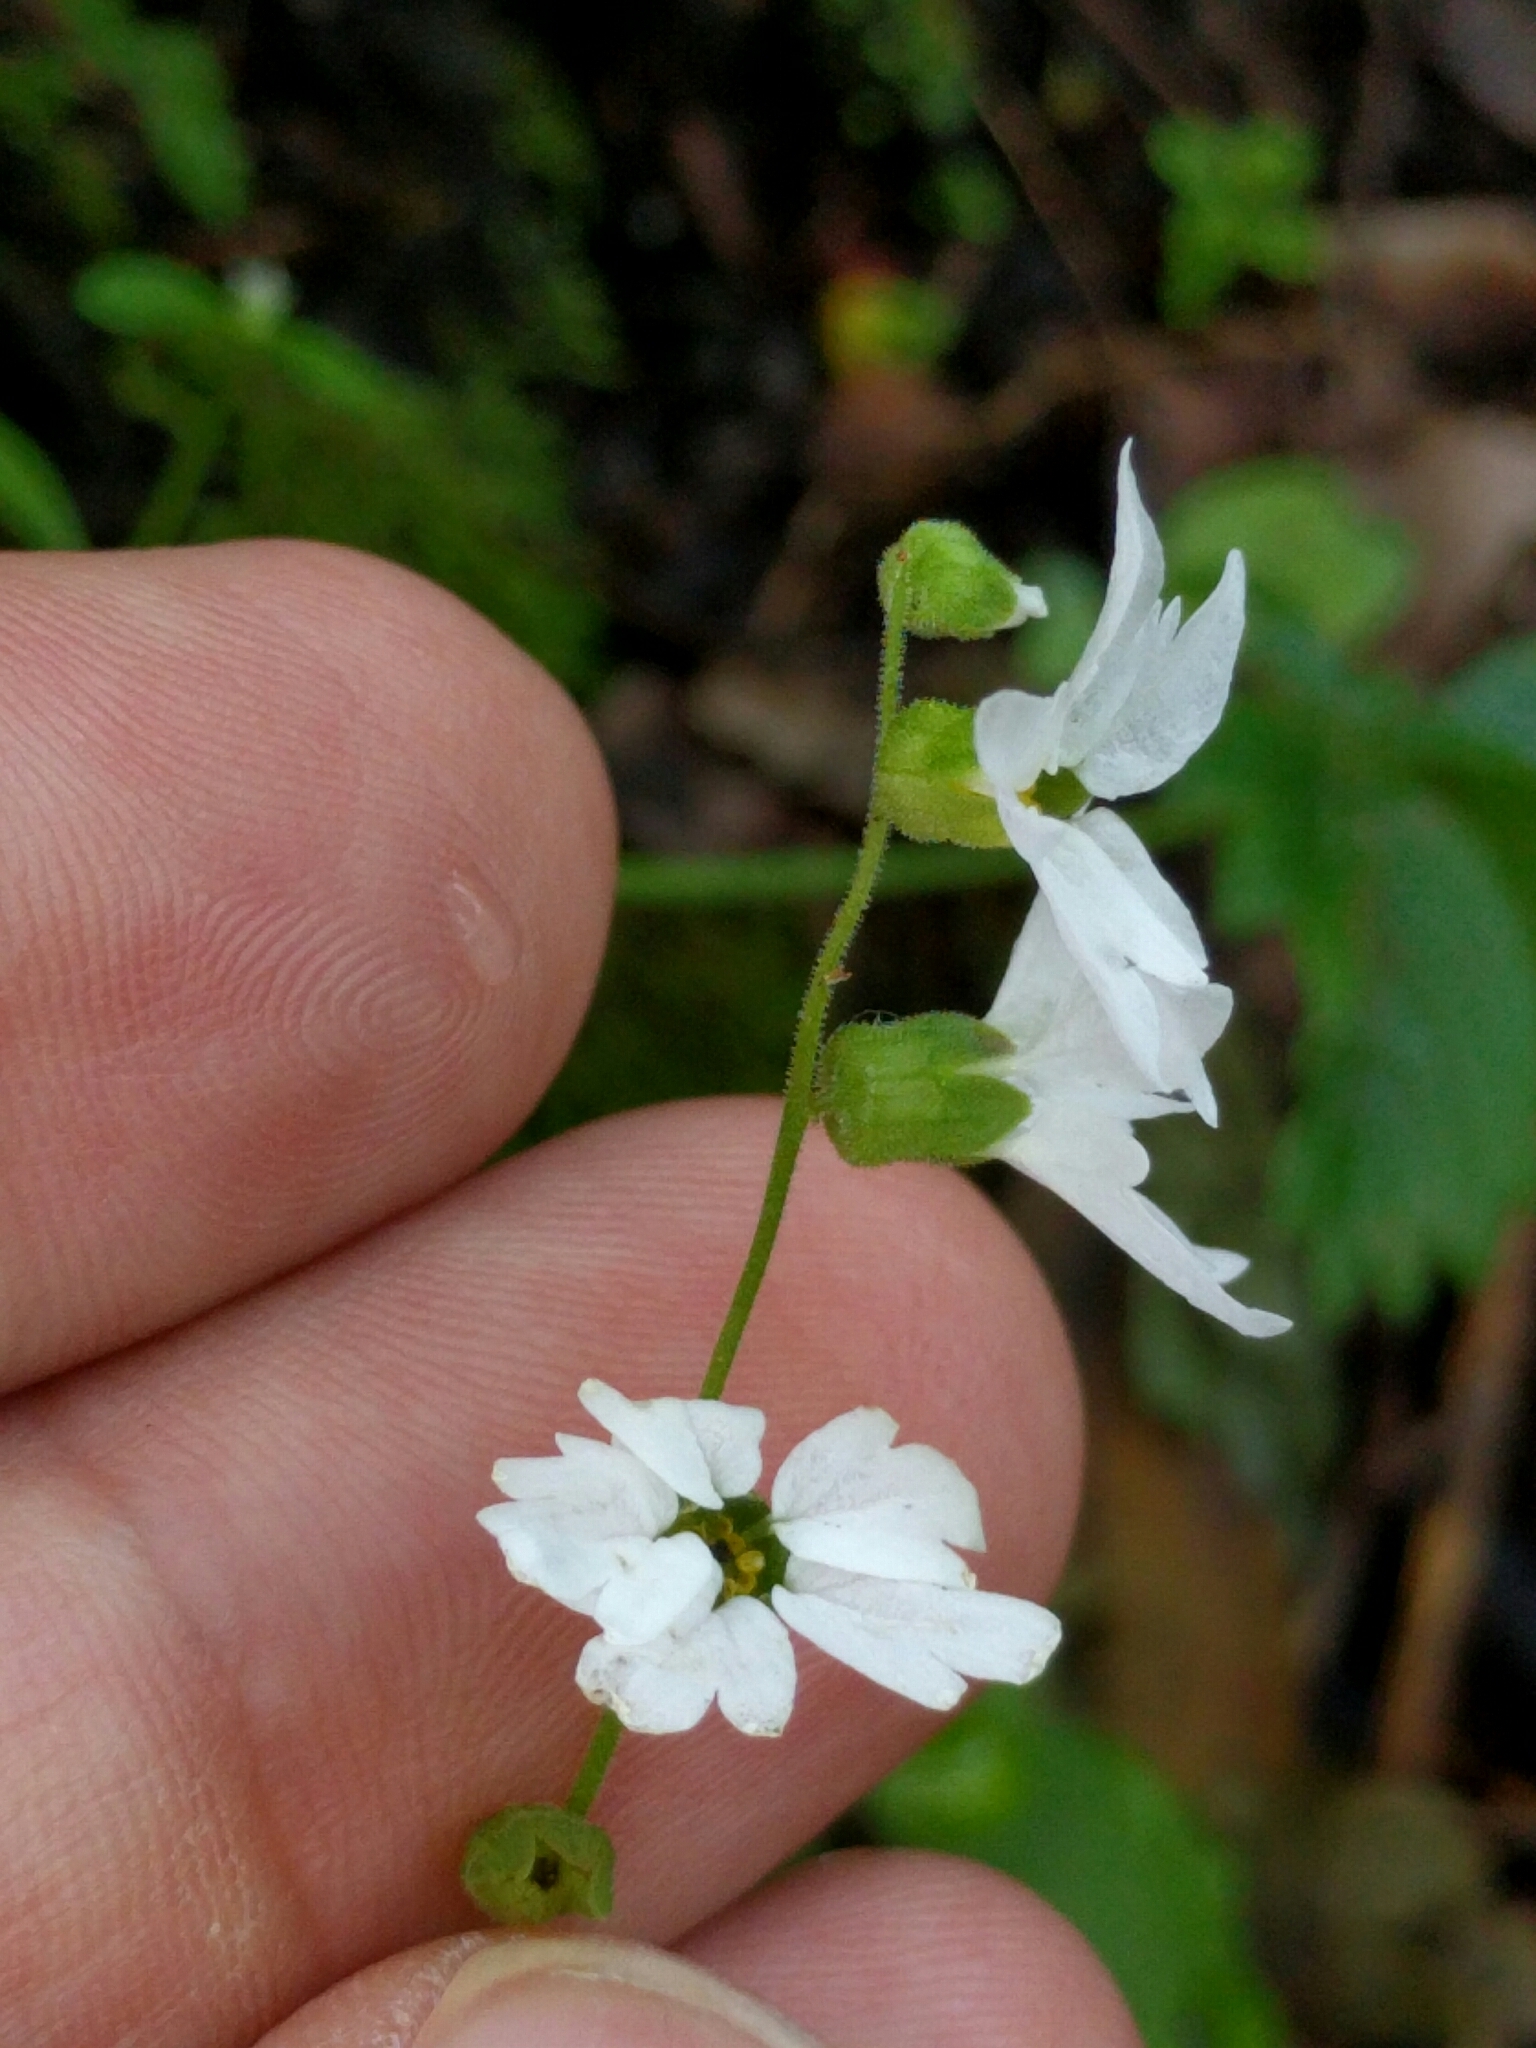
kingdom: Plantae
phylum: Tracheophyta
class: Magnoliopsida
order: Saxifragales
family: Saxifragaceae
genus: Lithophragma
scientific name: Lithophragma heterophyllum
